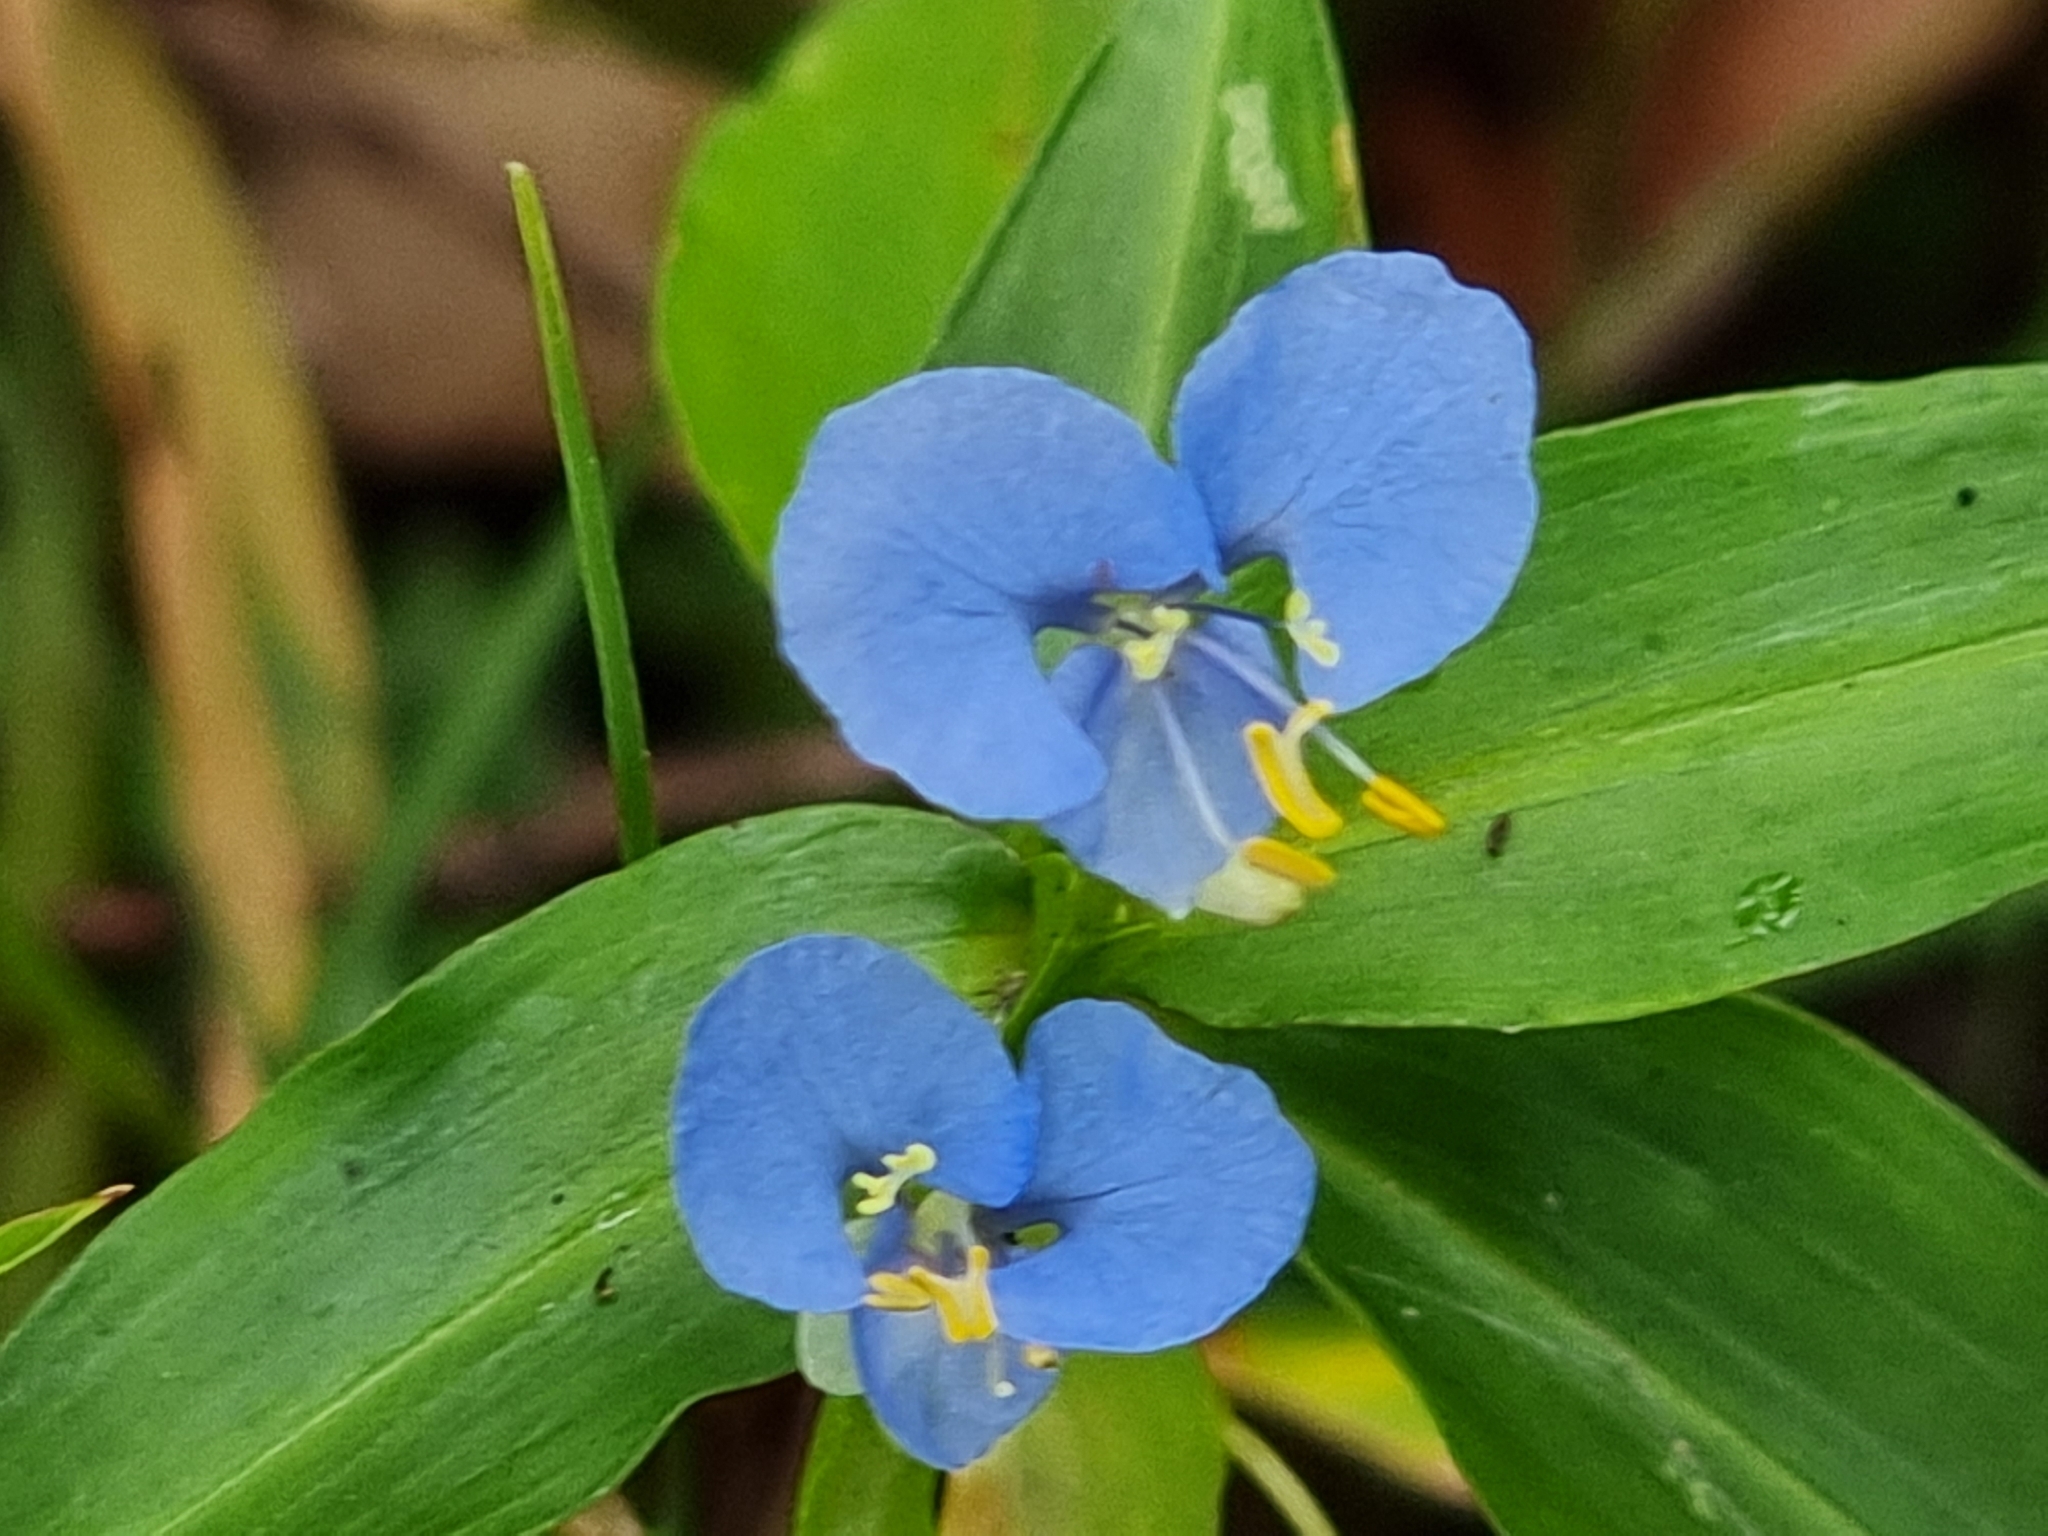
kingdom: Plantae
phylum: Tracheophyta
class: Liliopsida
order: Commelinales
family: Commelinaceae
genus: Commelina
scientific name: Commelina cyanea
